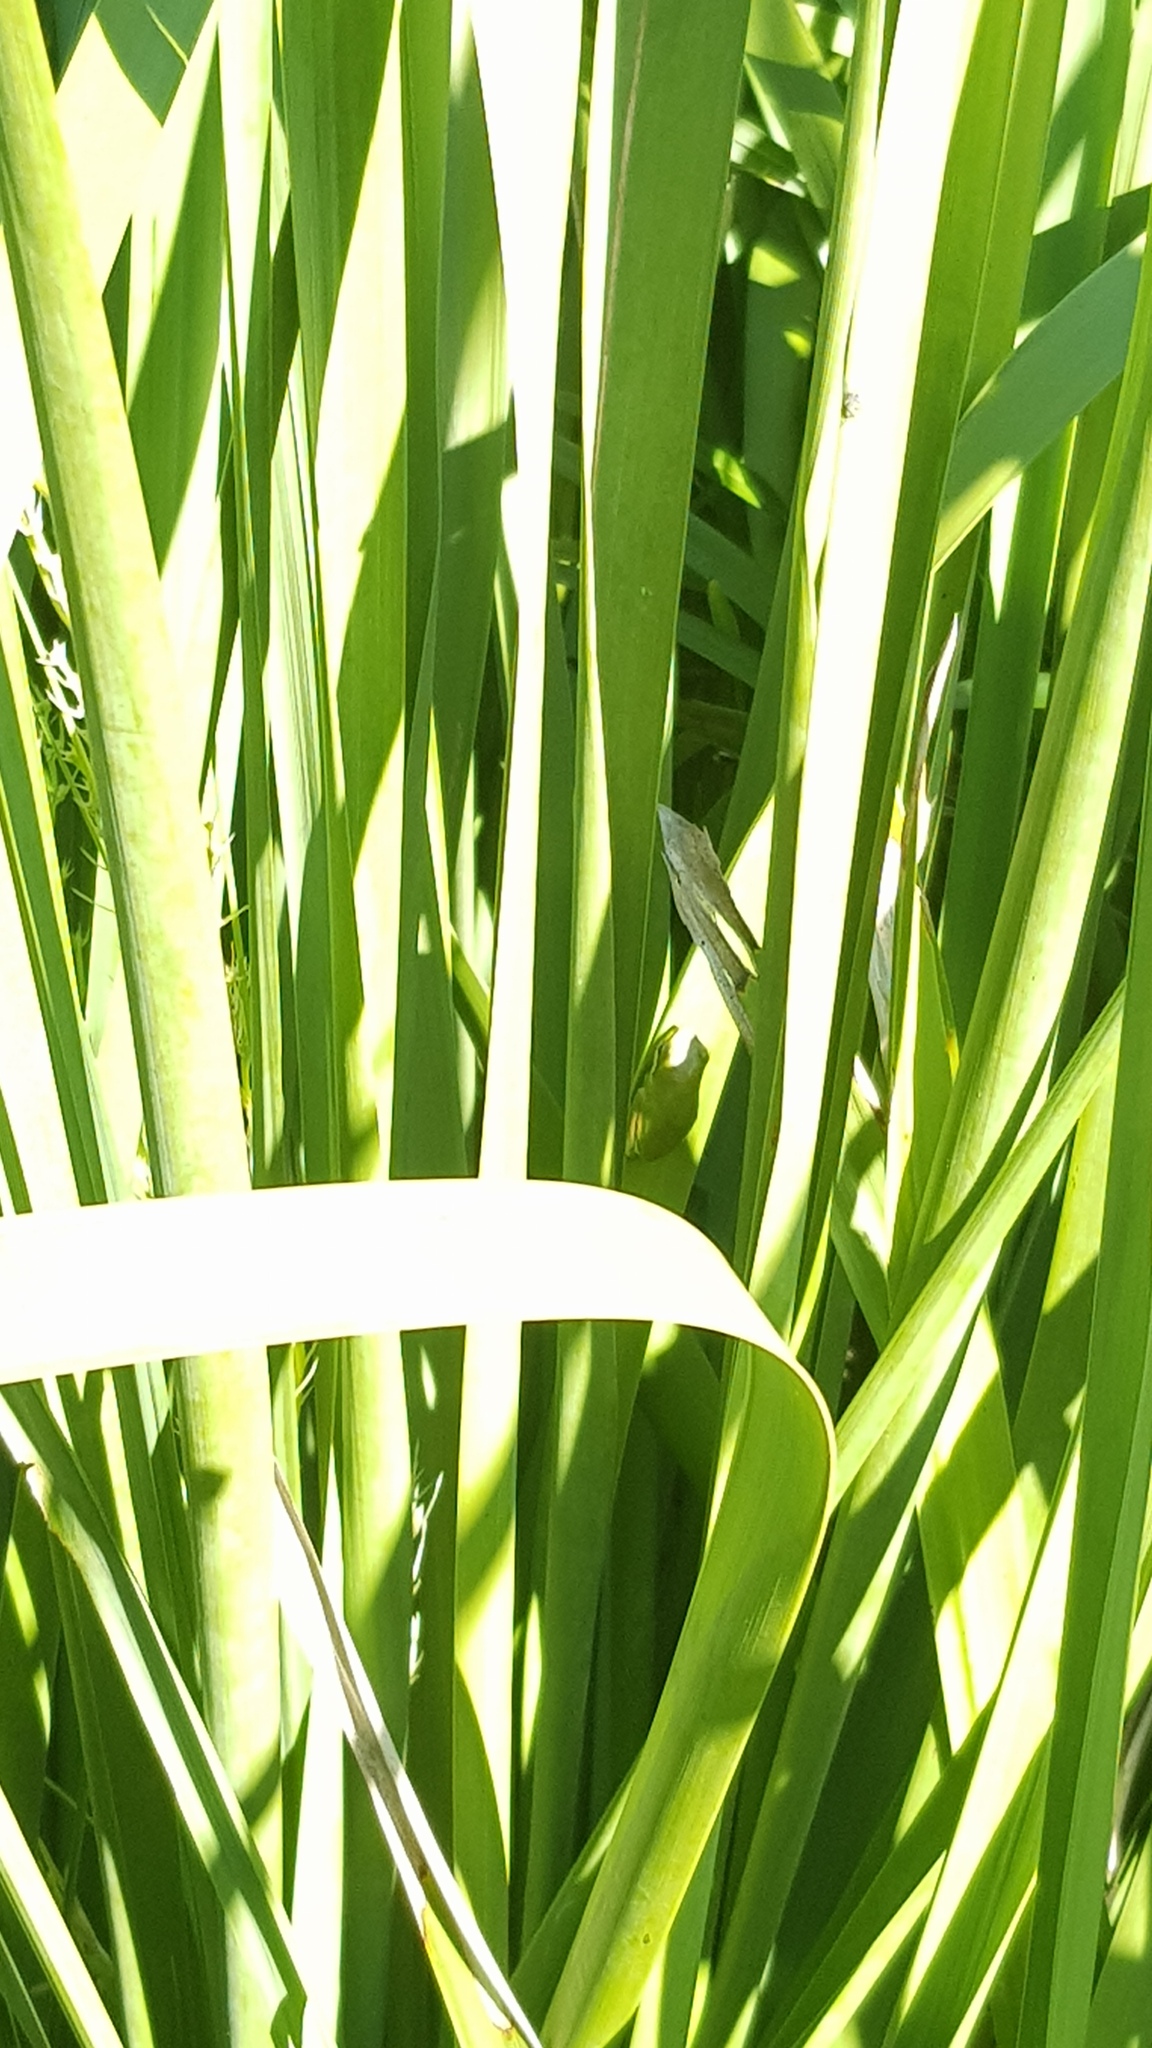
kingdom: Animalia
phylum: Chordata
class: Amphibia
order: Anura
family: Pelodryadidae
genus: Litoria
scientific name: Litoria fallax
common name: Eastern dwarf treefrog
